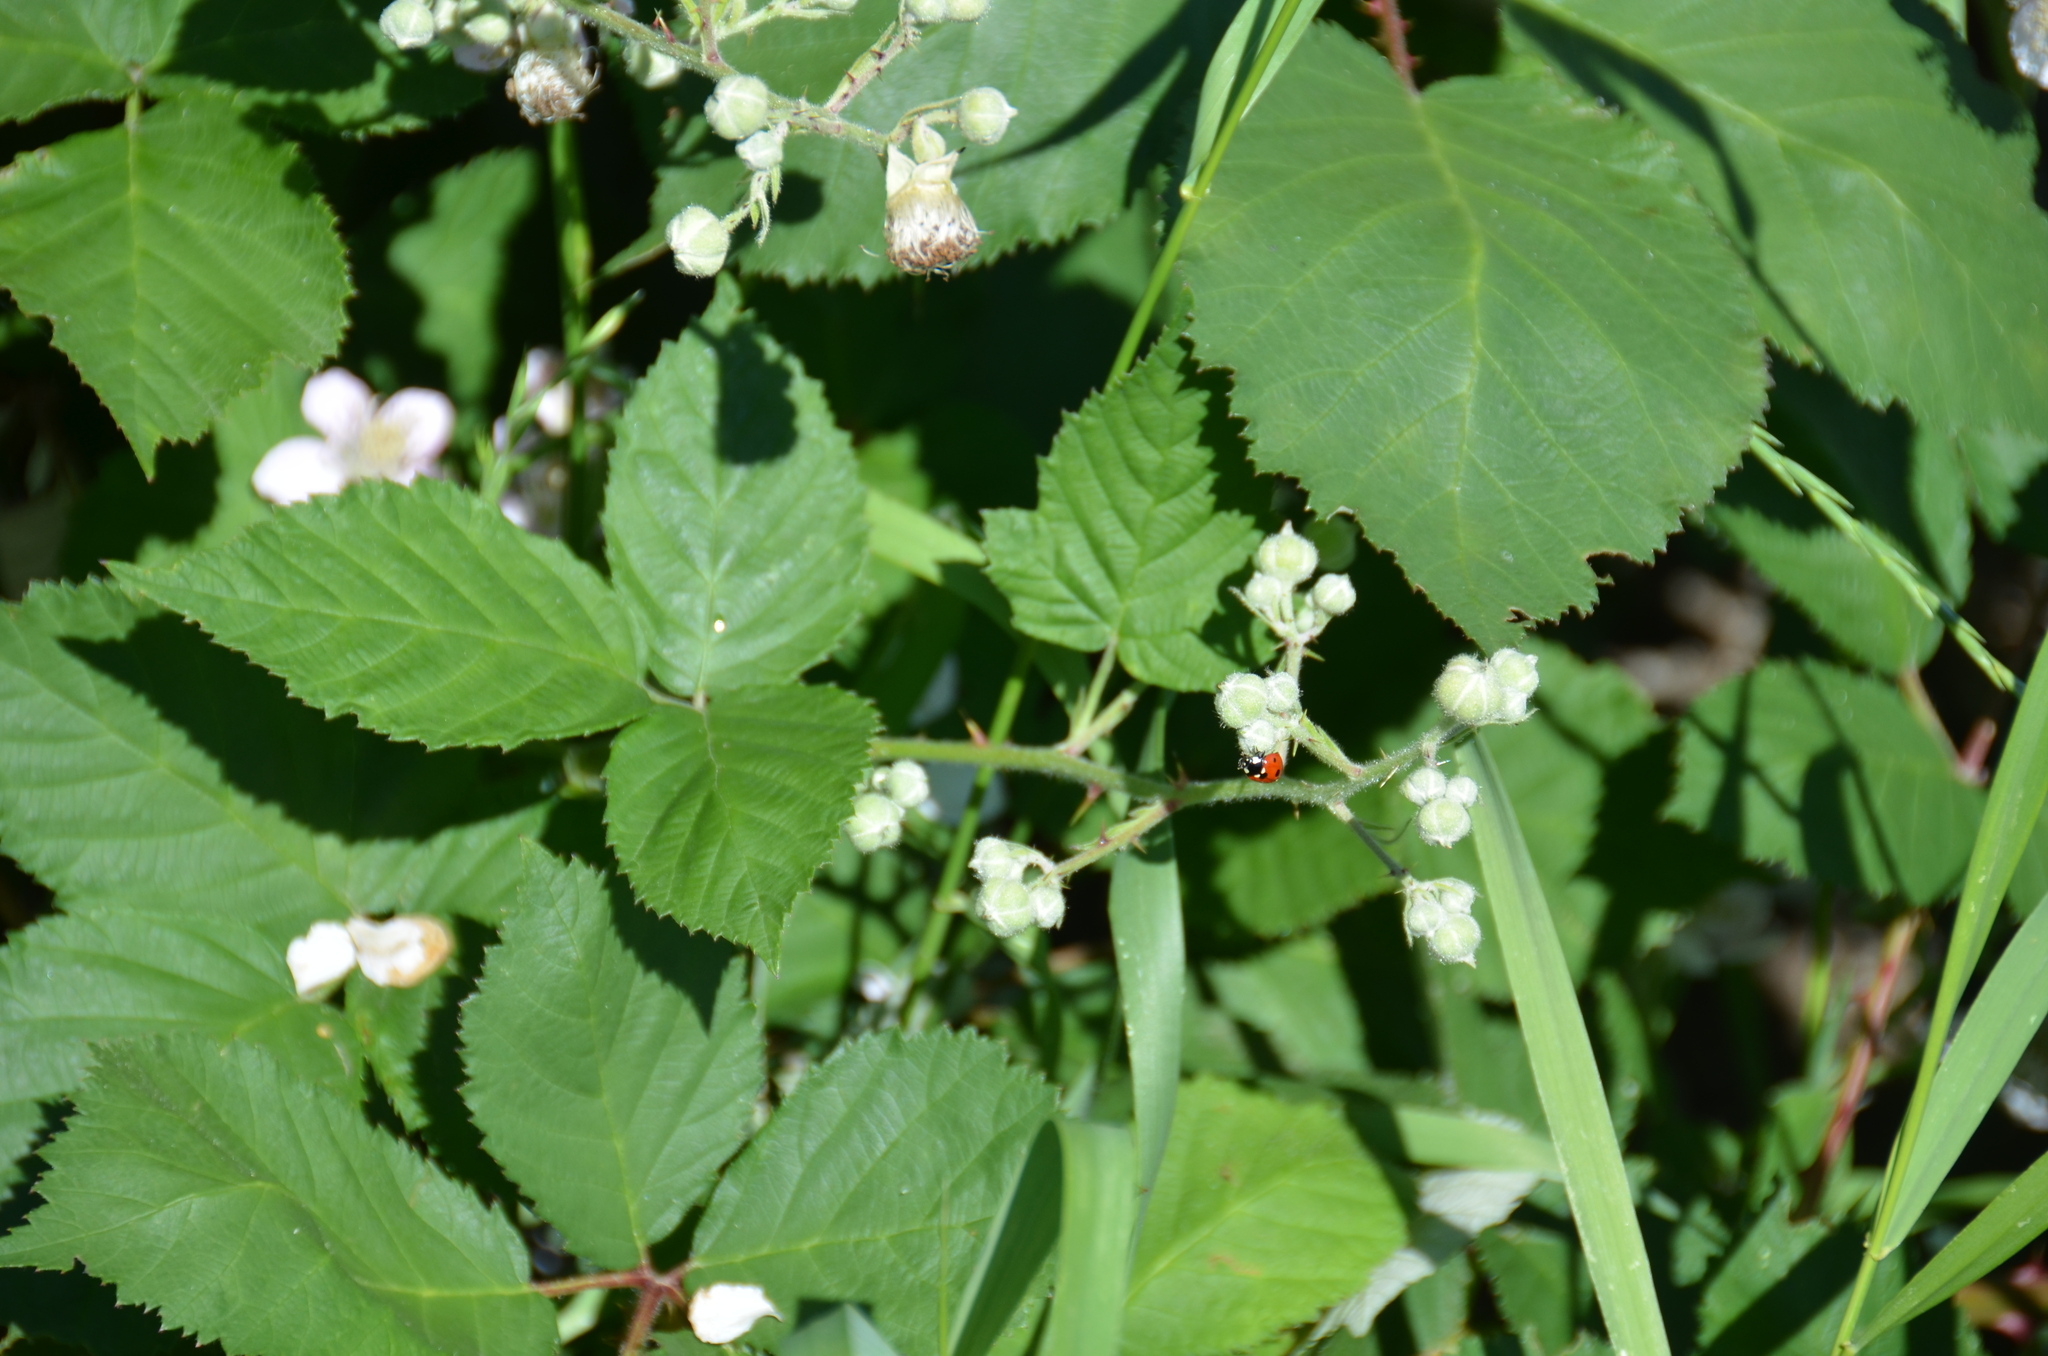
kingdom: Animalia
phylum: Arthropoda
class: Insecta
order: Coleoptera
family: Coccinellidae
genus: Coccinella
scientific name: Coccinella septempunctata
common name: Sevenspotted lady beetle
